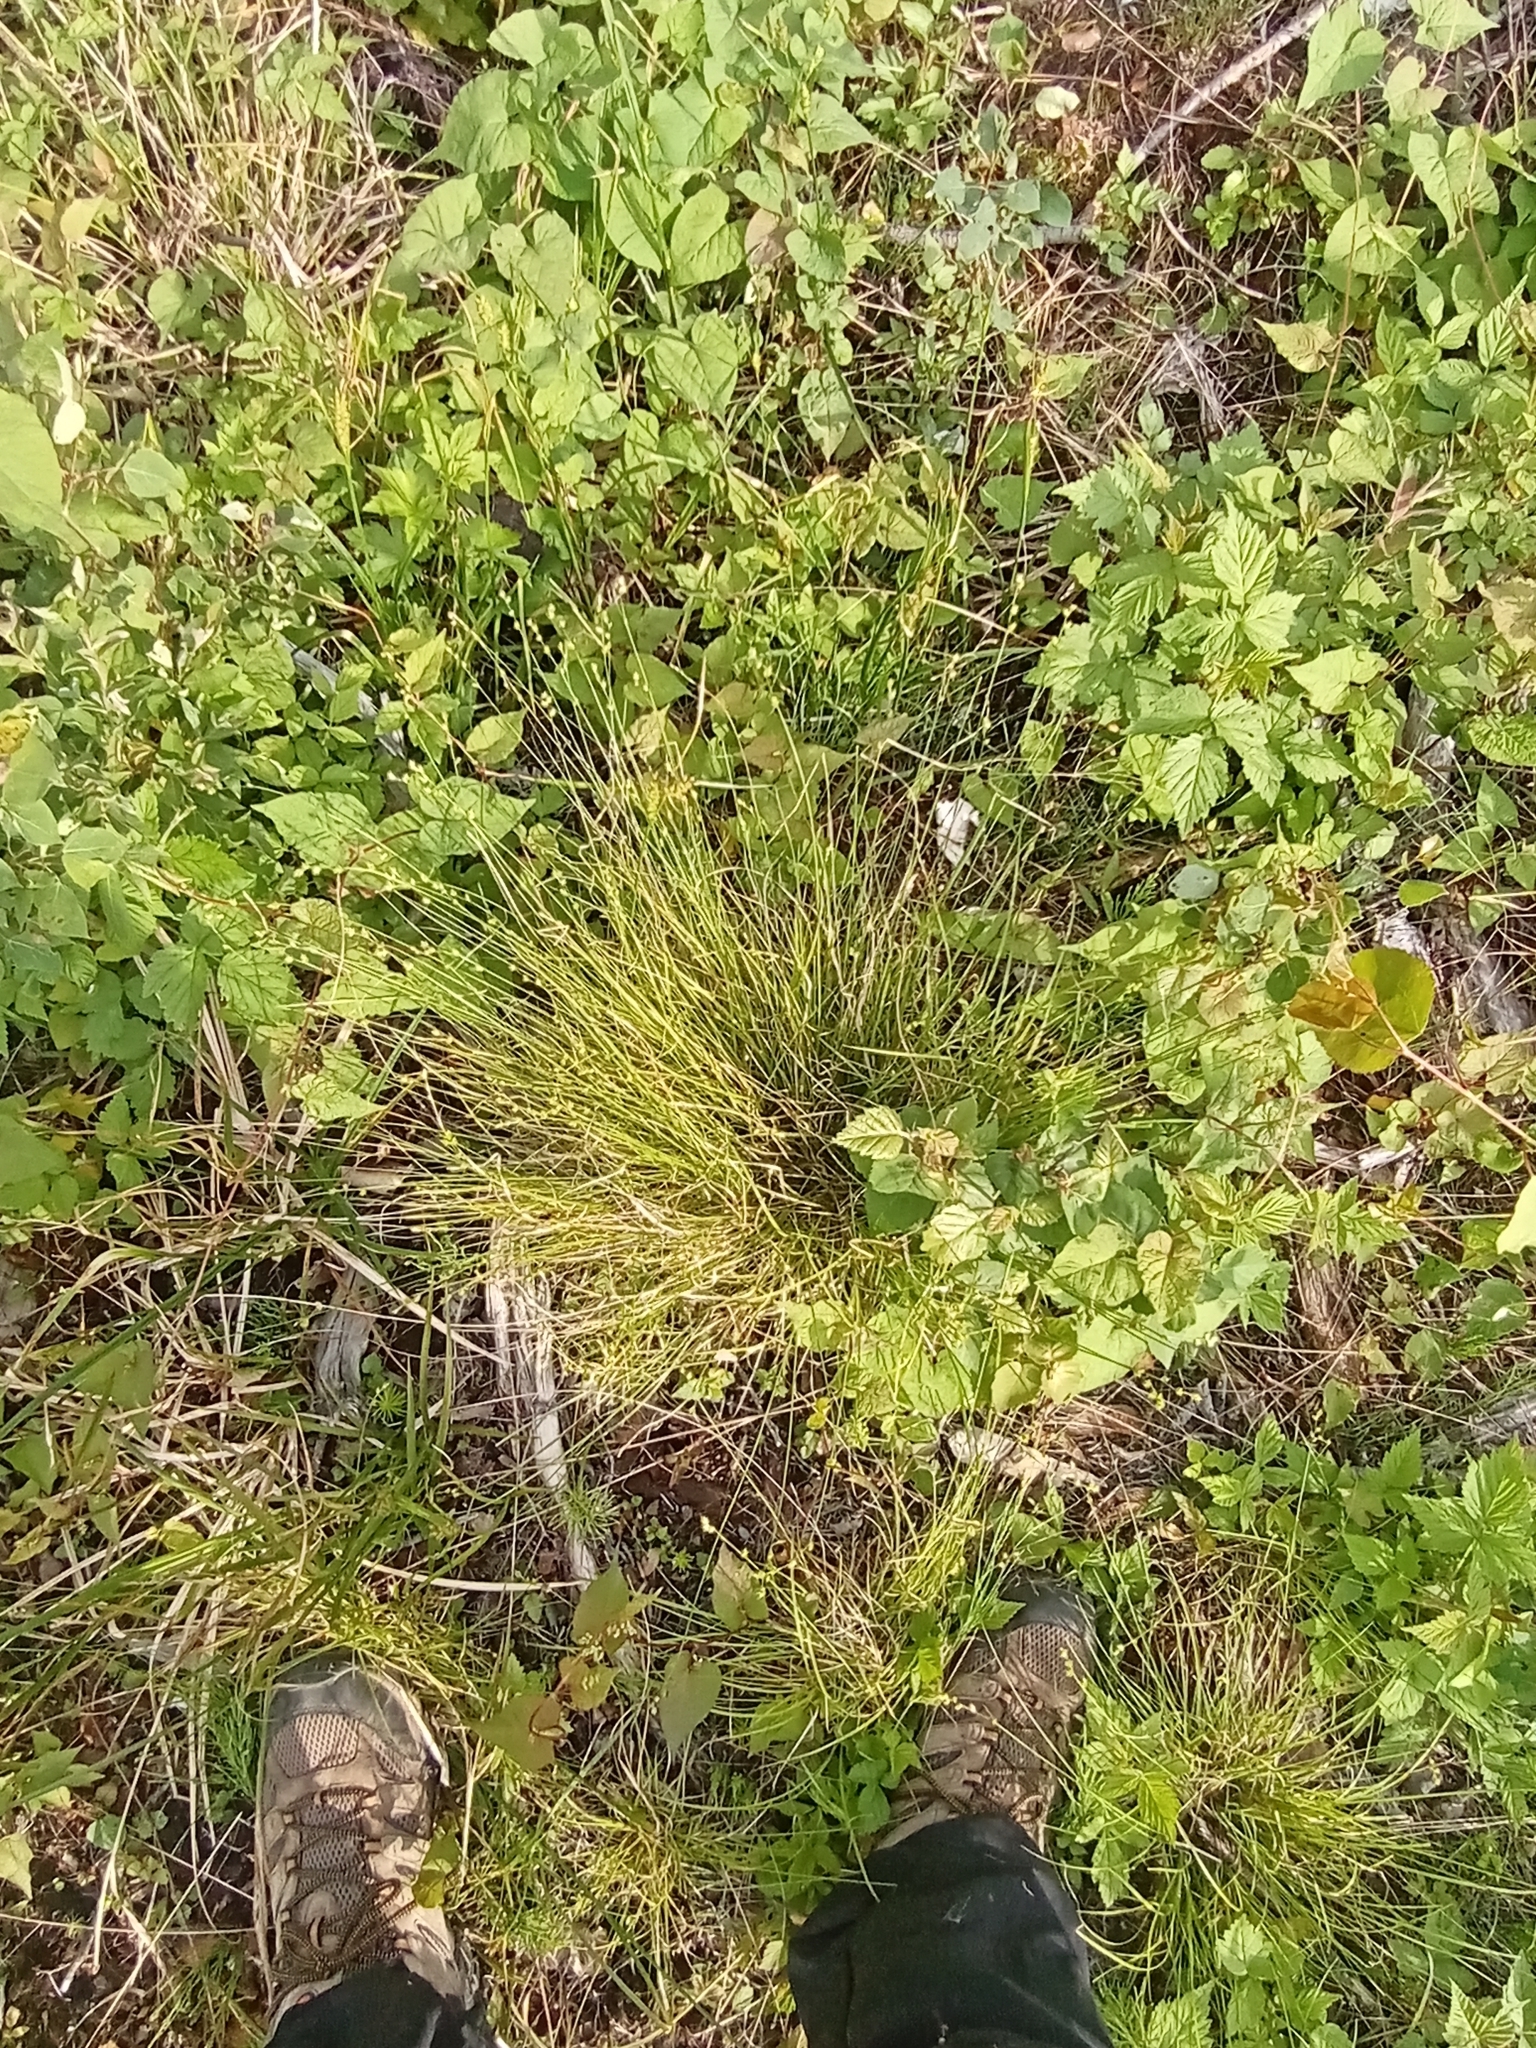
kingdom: Plantae
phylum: Tracheophyta
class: Liliopsida
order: Poales
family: Cyperaceae
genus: Carex
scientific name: Carex brunnescens
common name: Brown sedge
